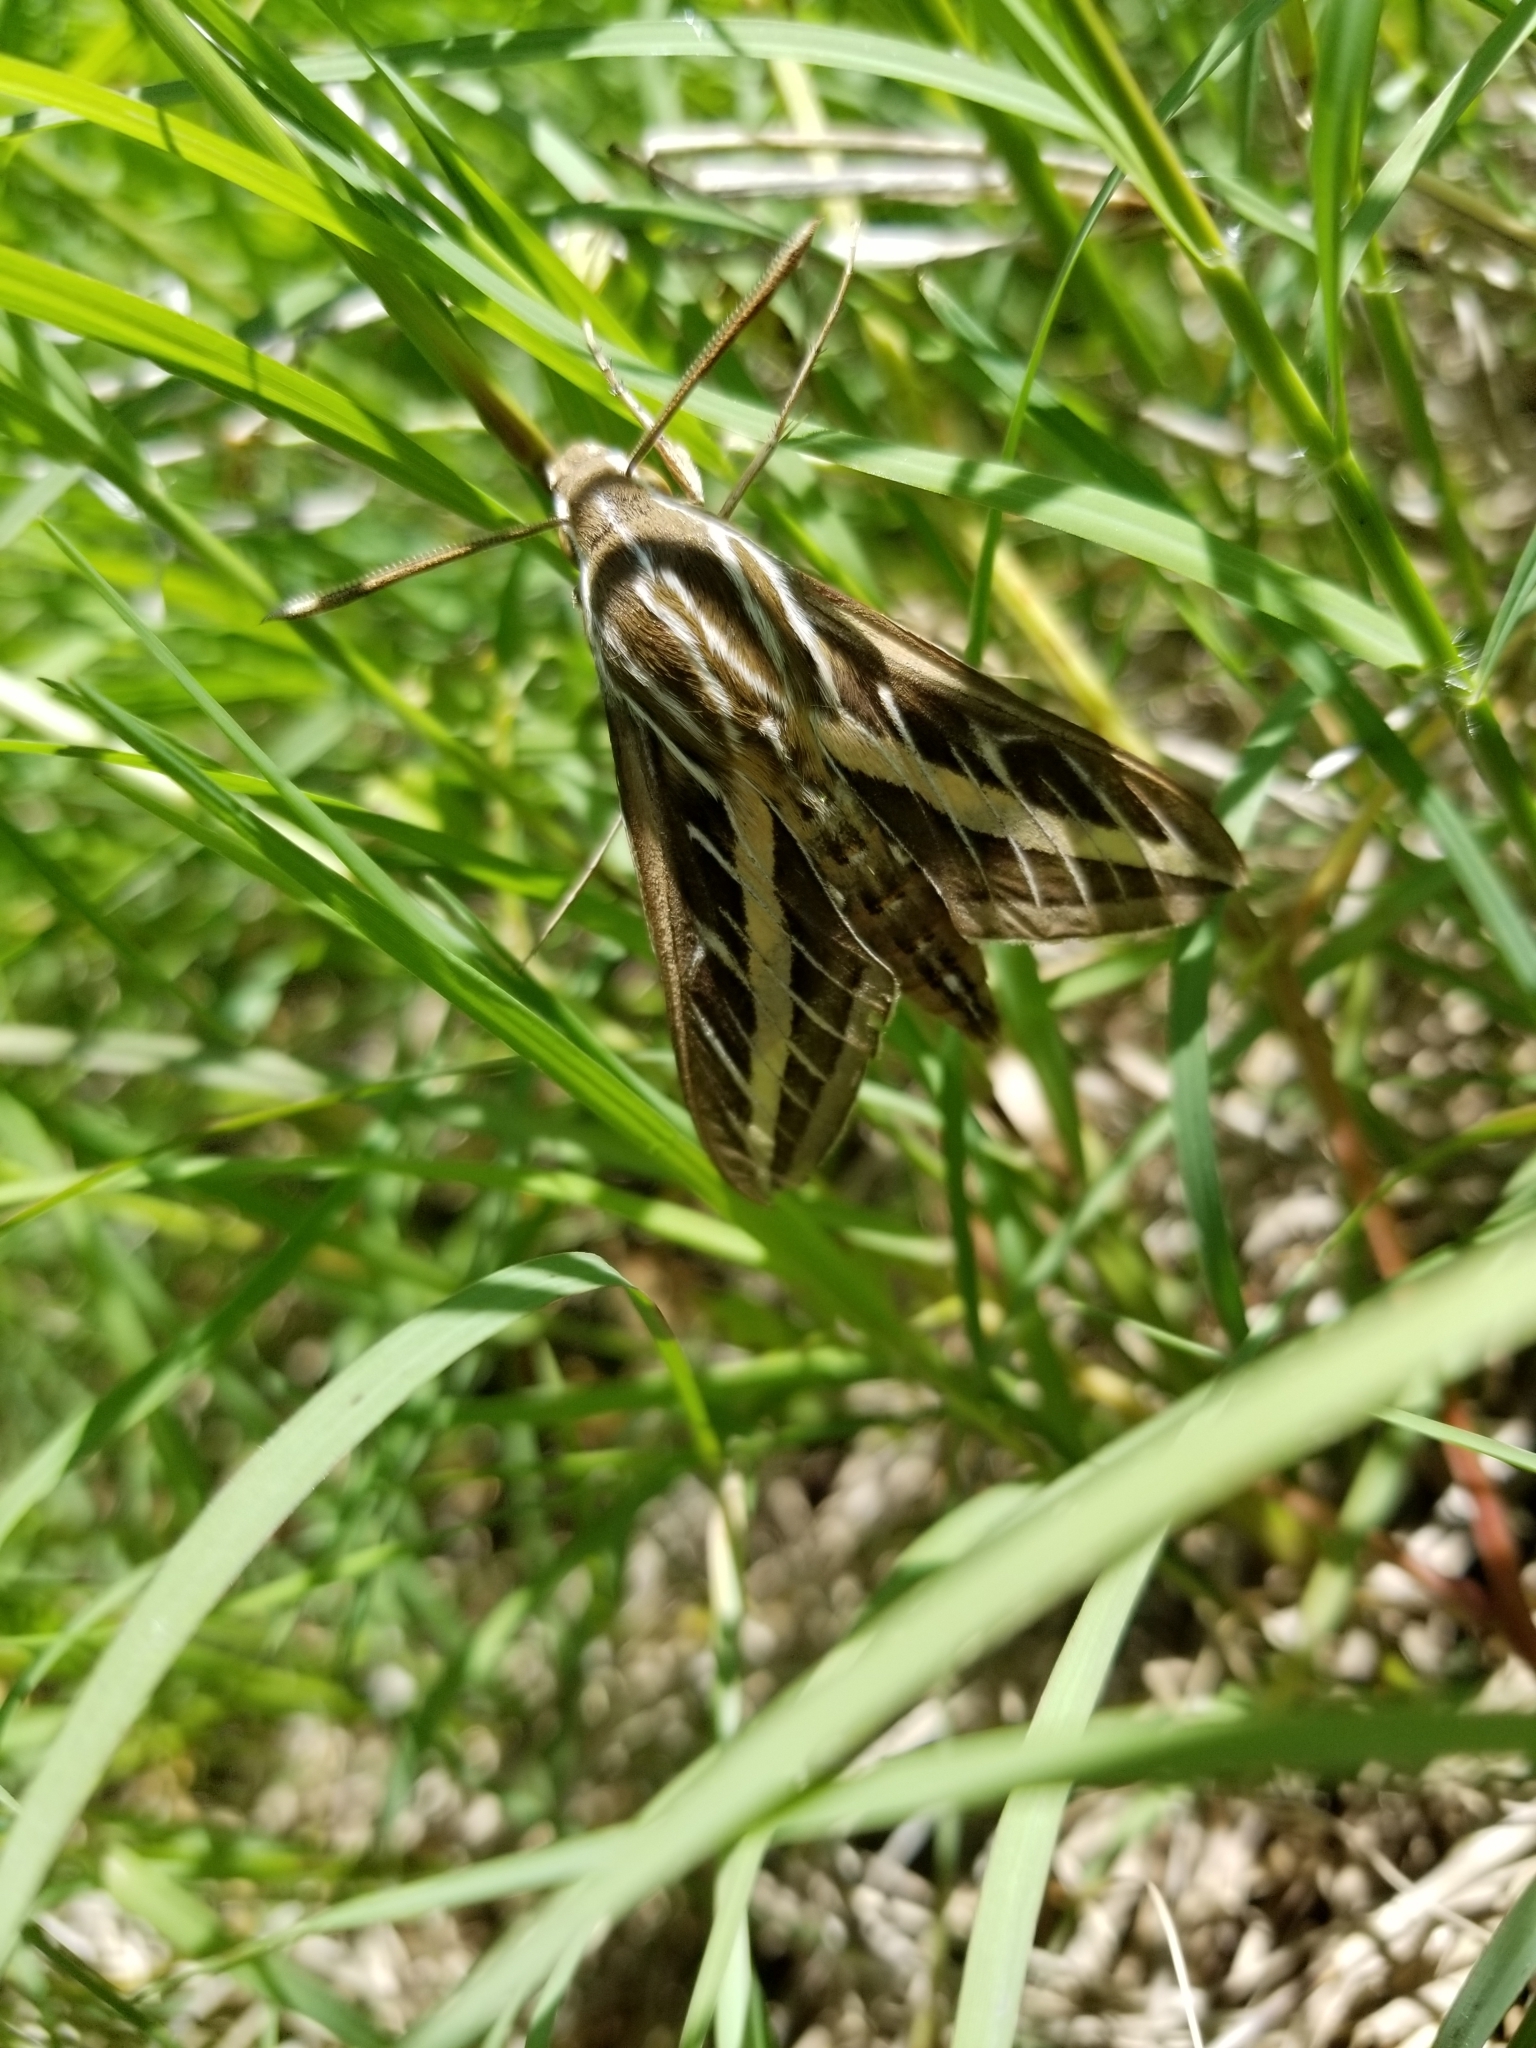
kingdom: Animalia
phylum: Arthropoda
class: Insecta
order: Lepidoptera
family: Sphingidae
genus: Hyles
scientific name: Hyles lineata
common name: White-lined sphinx
